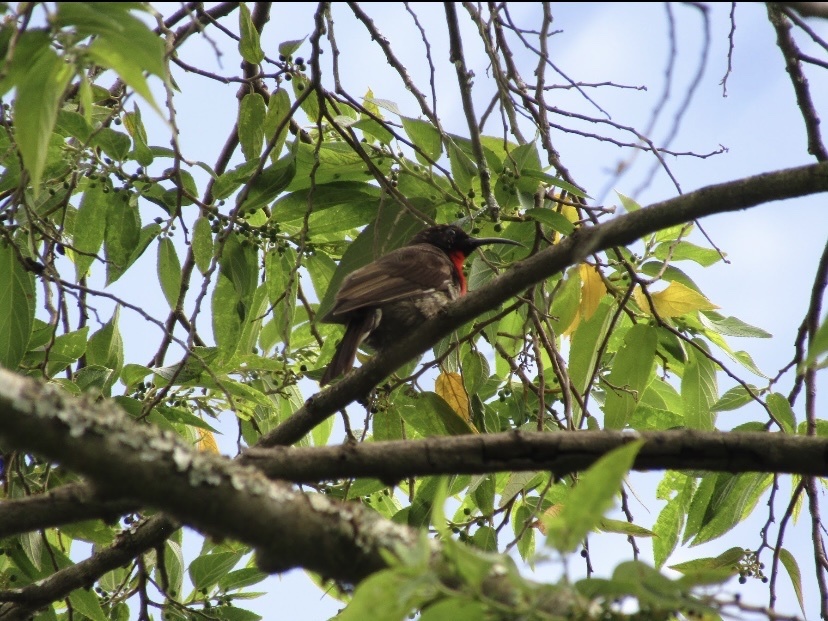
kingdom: Animalia
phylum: Chordata
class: Aves
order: Passeriformes
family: Nectariniidae
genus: Chalcomitra
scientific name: Chalcomitra senegalensis
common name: Scarlet-chested sunbird
